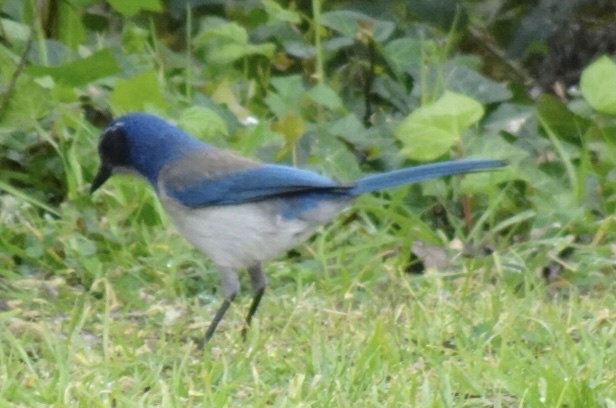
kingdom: Animalia
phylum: Chordata
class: Aves
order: Passeriformes
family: Corvidae
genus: Aphelocoma
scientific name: Aphelocoma californica
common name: California scrub-jay
